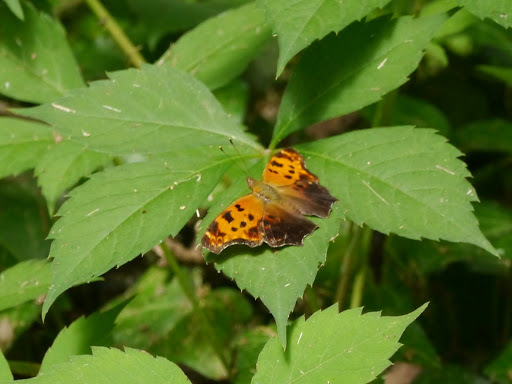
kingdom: Animalia
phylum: Arthropoda
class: Insecta
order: Lepidoptera
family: Nymphalidae
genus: Polygonia
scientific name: Polygonia comma
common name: Eastern comma
